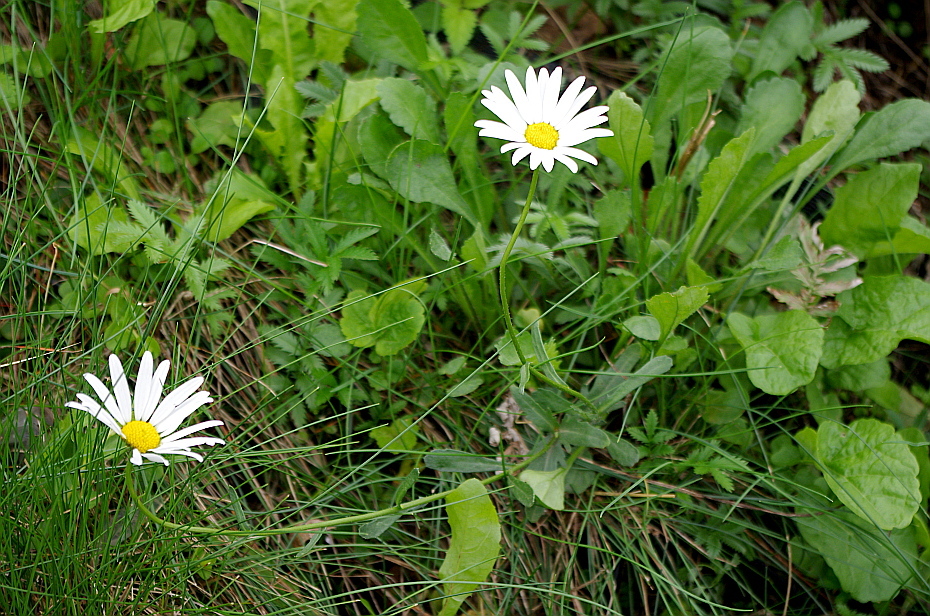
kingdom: Plantae
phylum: Tracheophyta
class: Magnoliopsida
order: Asterales
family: Asteraceae
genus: Leucanthemum
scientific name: Leucanthemum vulgare
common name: Oxeye daisy
